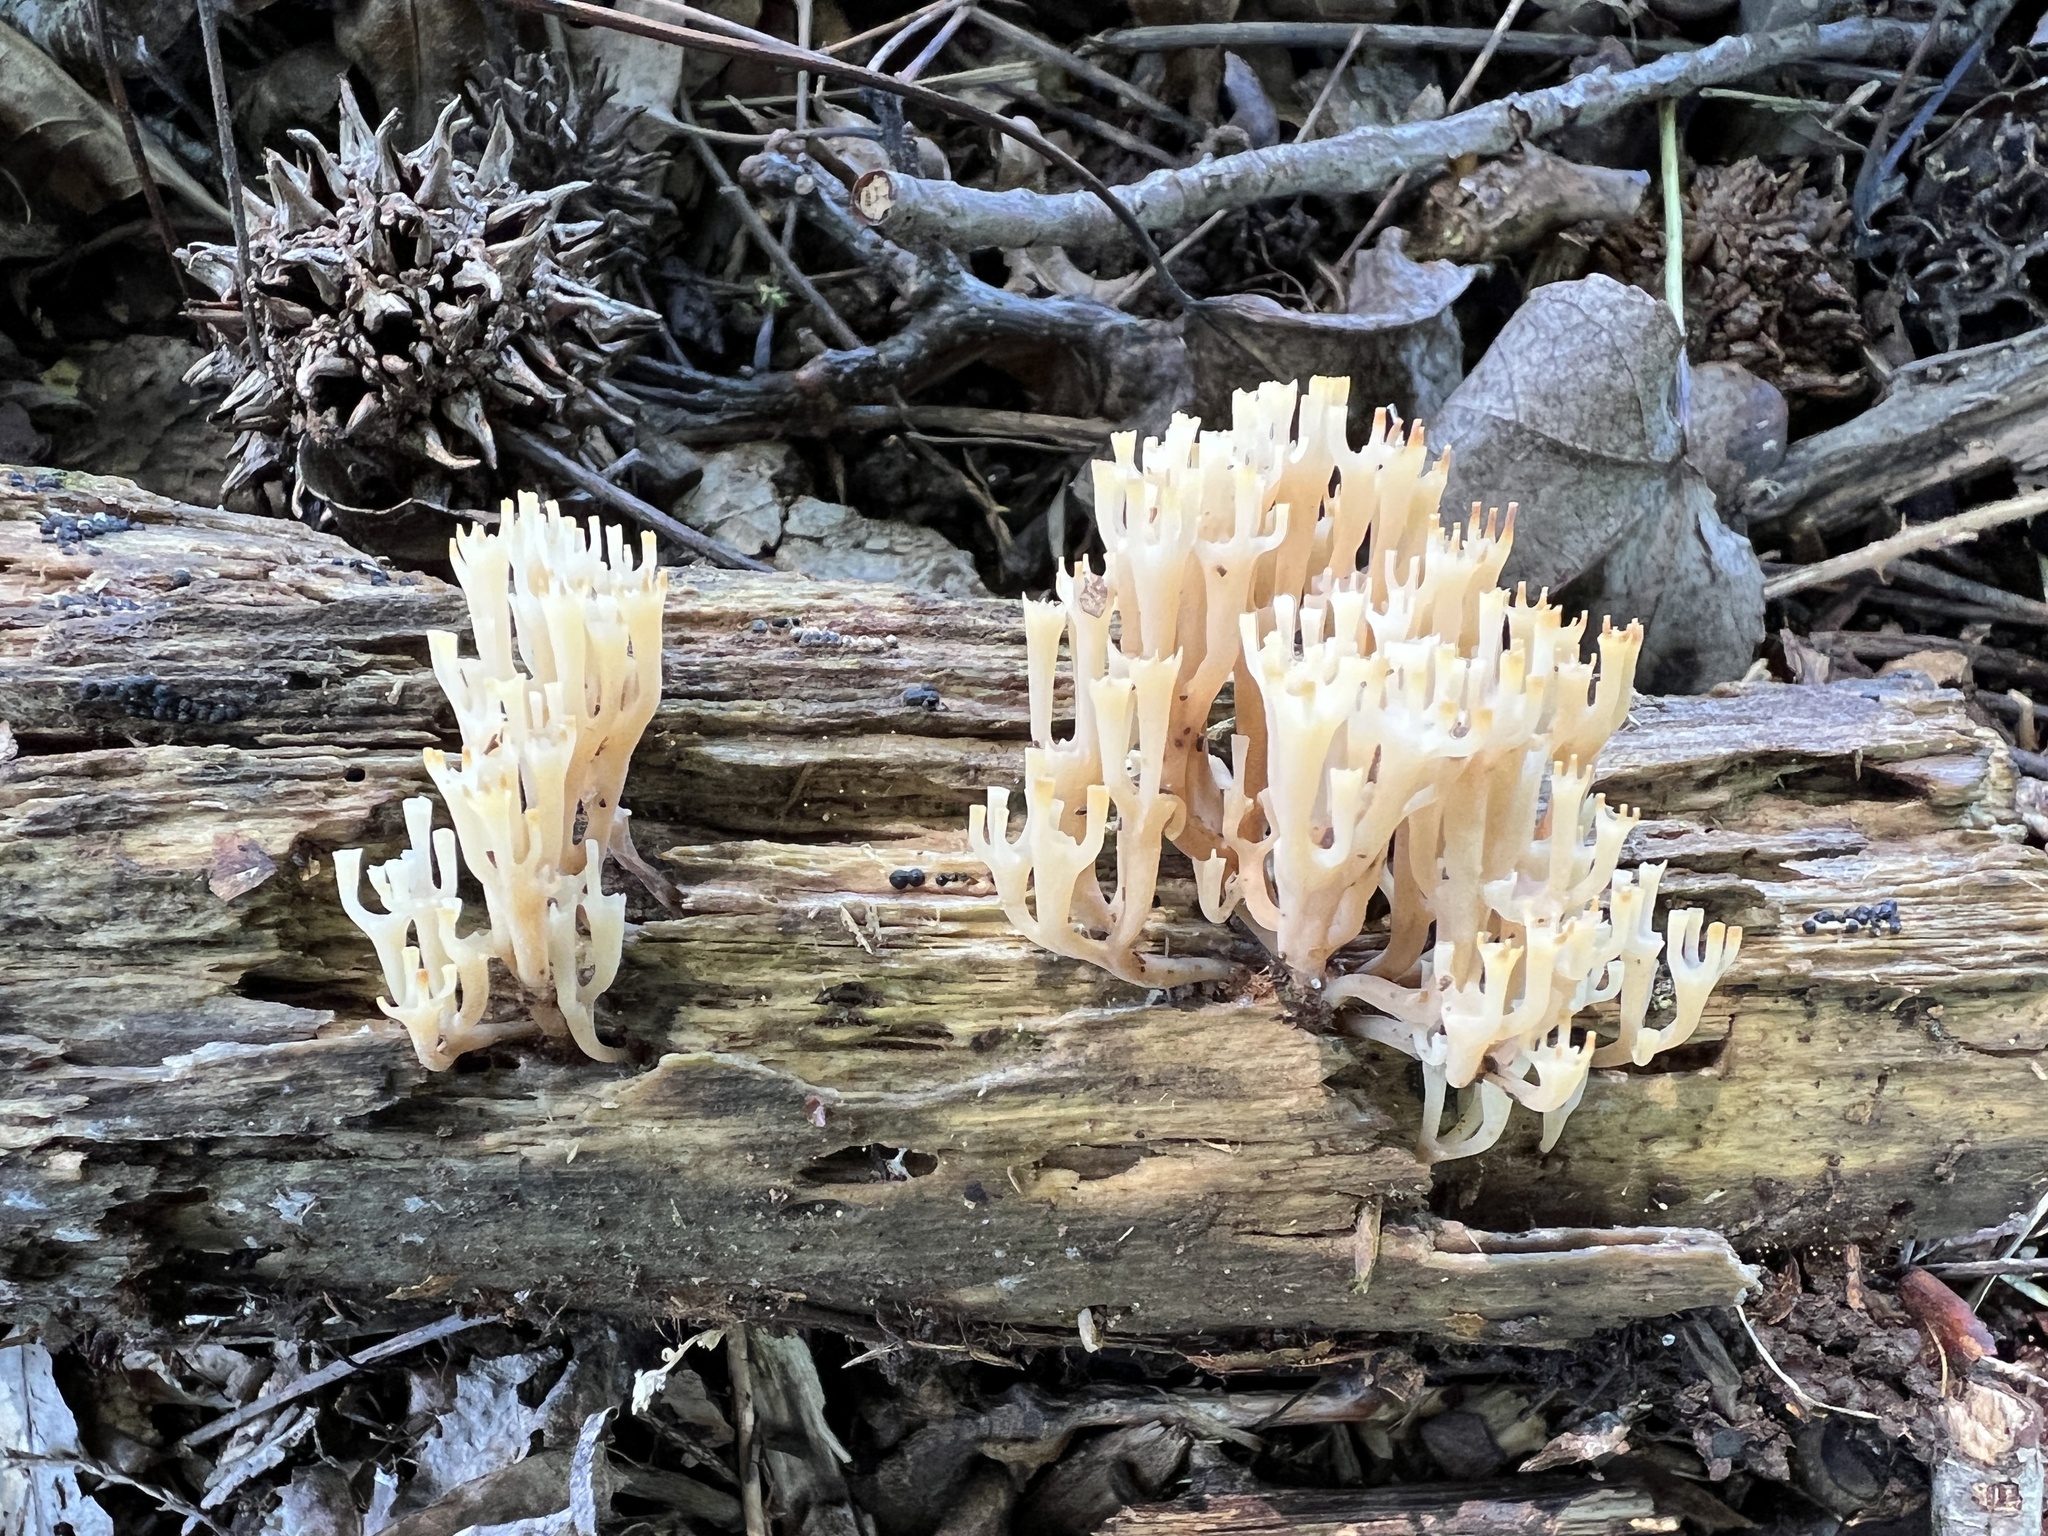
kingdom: Fungi
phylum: Basidiomycota
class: Agaricomycetes
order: Russulales
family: Auriscalpiaceae
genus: Artomyces
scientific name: Artomyces pyxidatus
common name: Crown-tipped coral fungus
